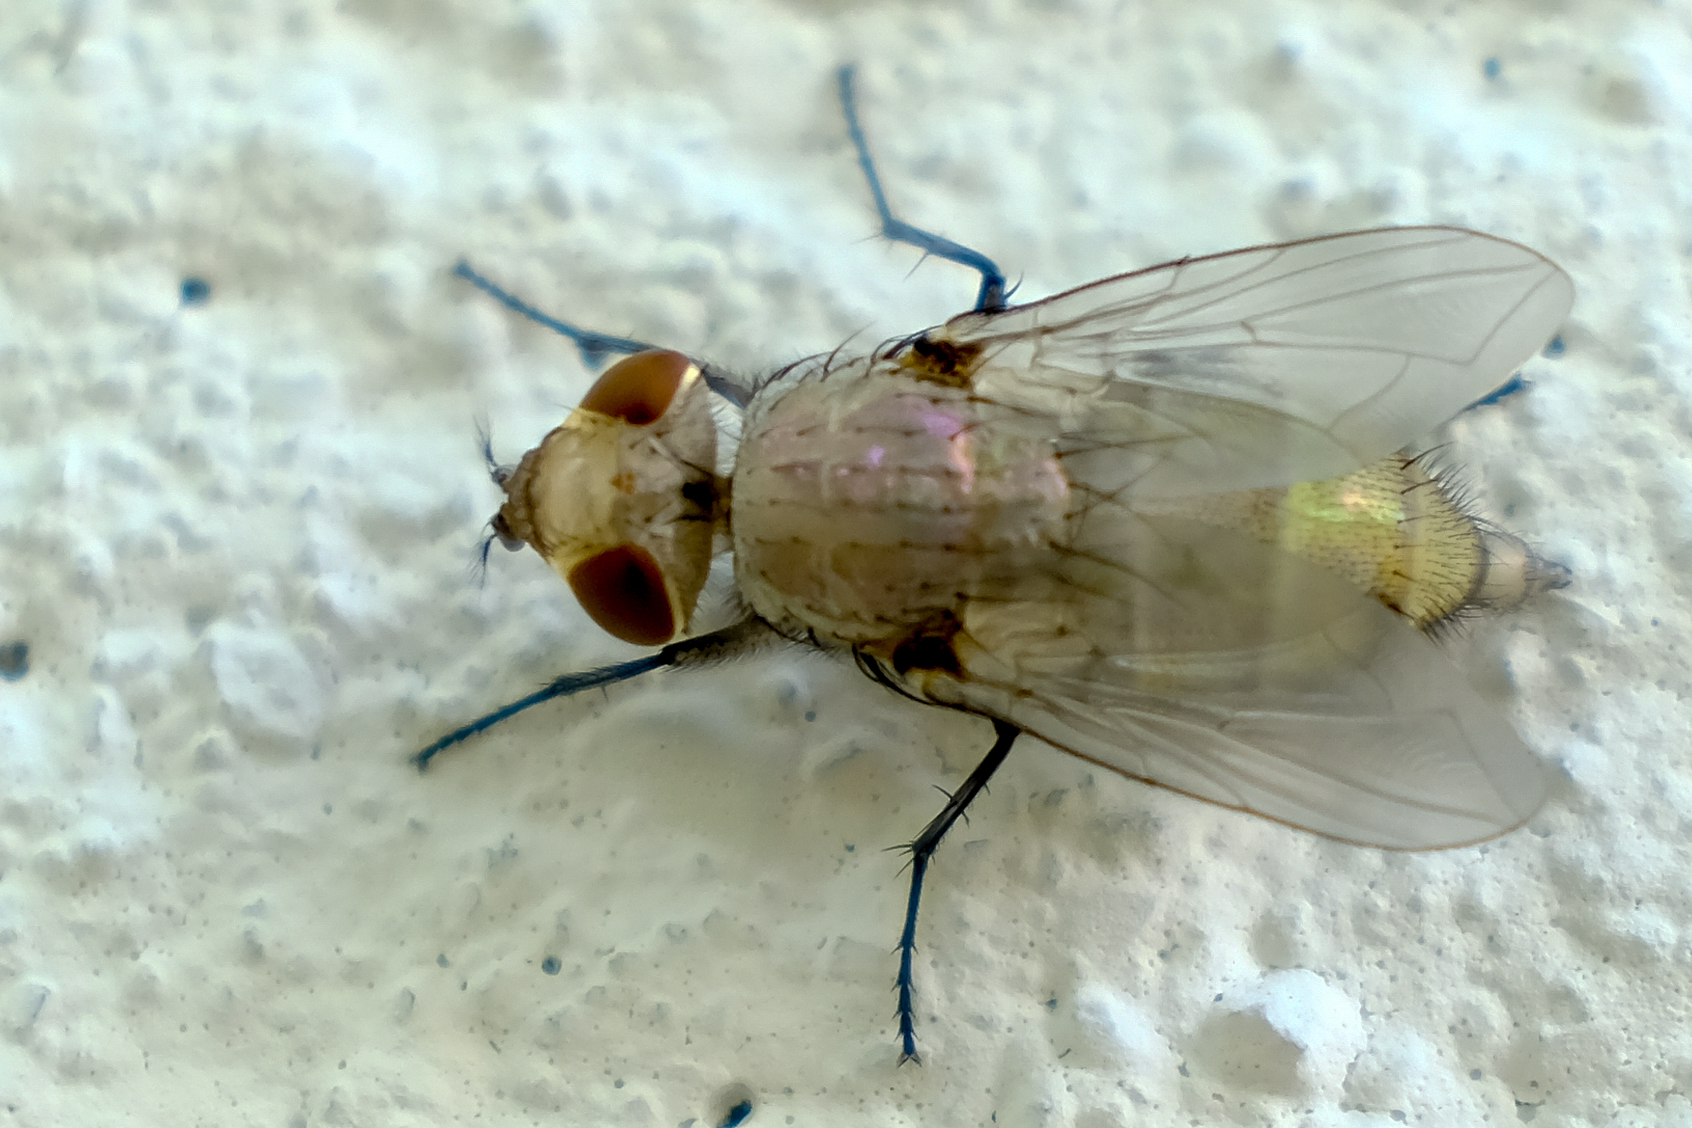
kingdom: Animalia
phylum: Arthropoda
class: Insecta
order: Diptera
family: Calliphoridae
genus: Lucilia
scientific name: Lucilia sericata
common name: Blow fly
